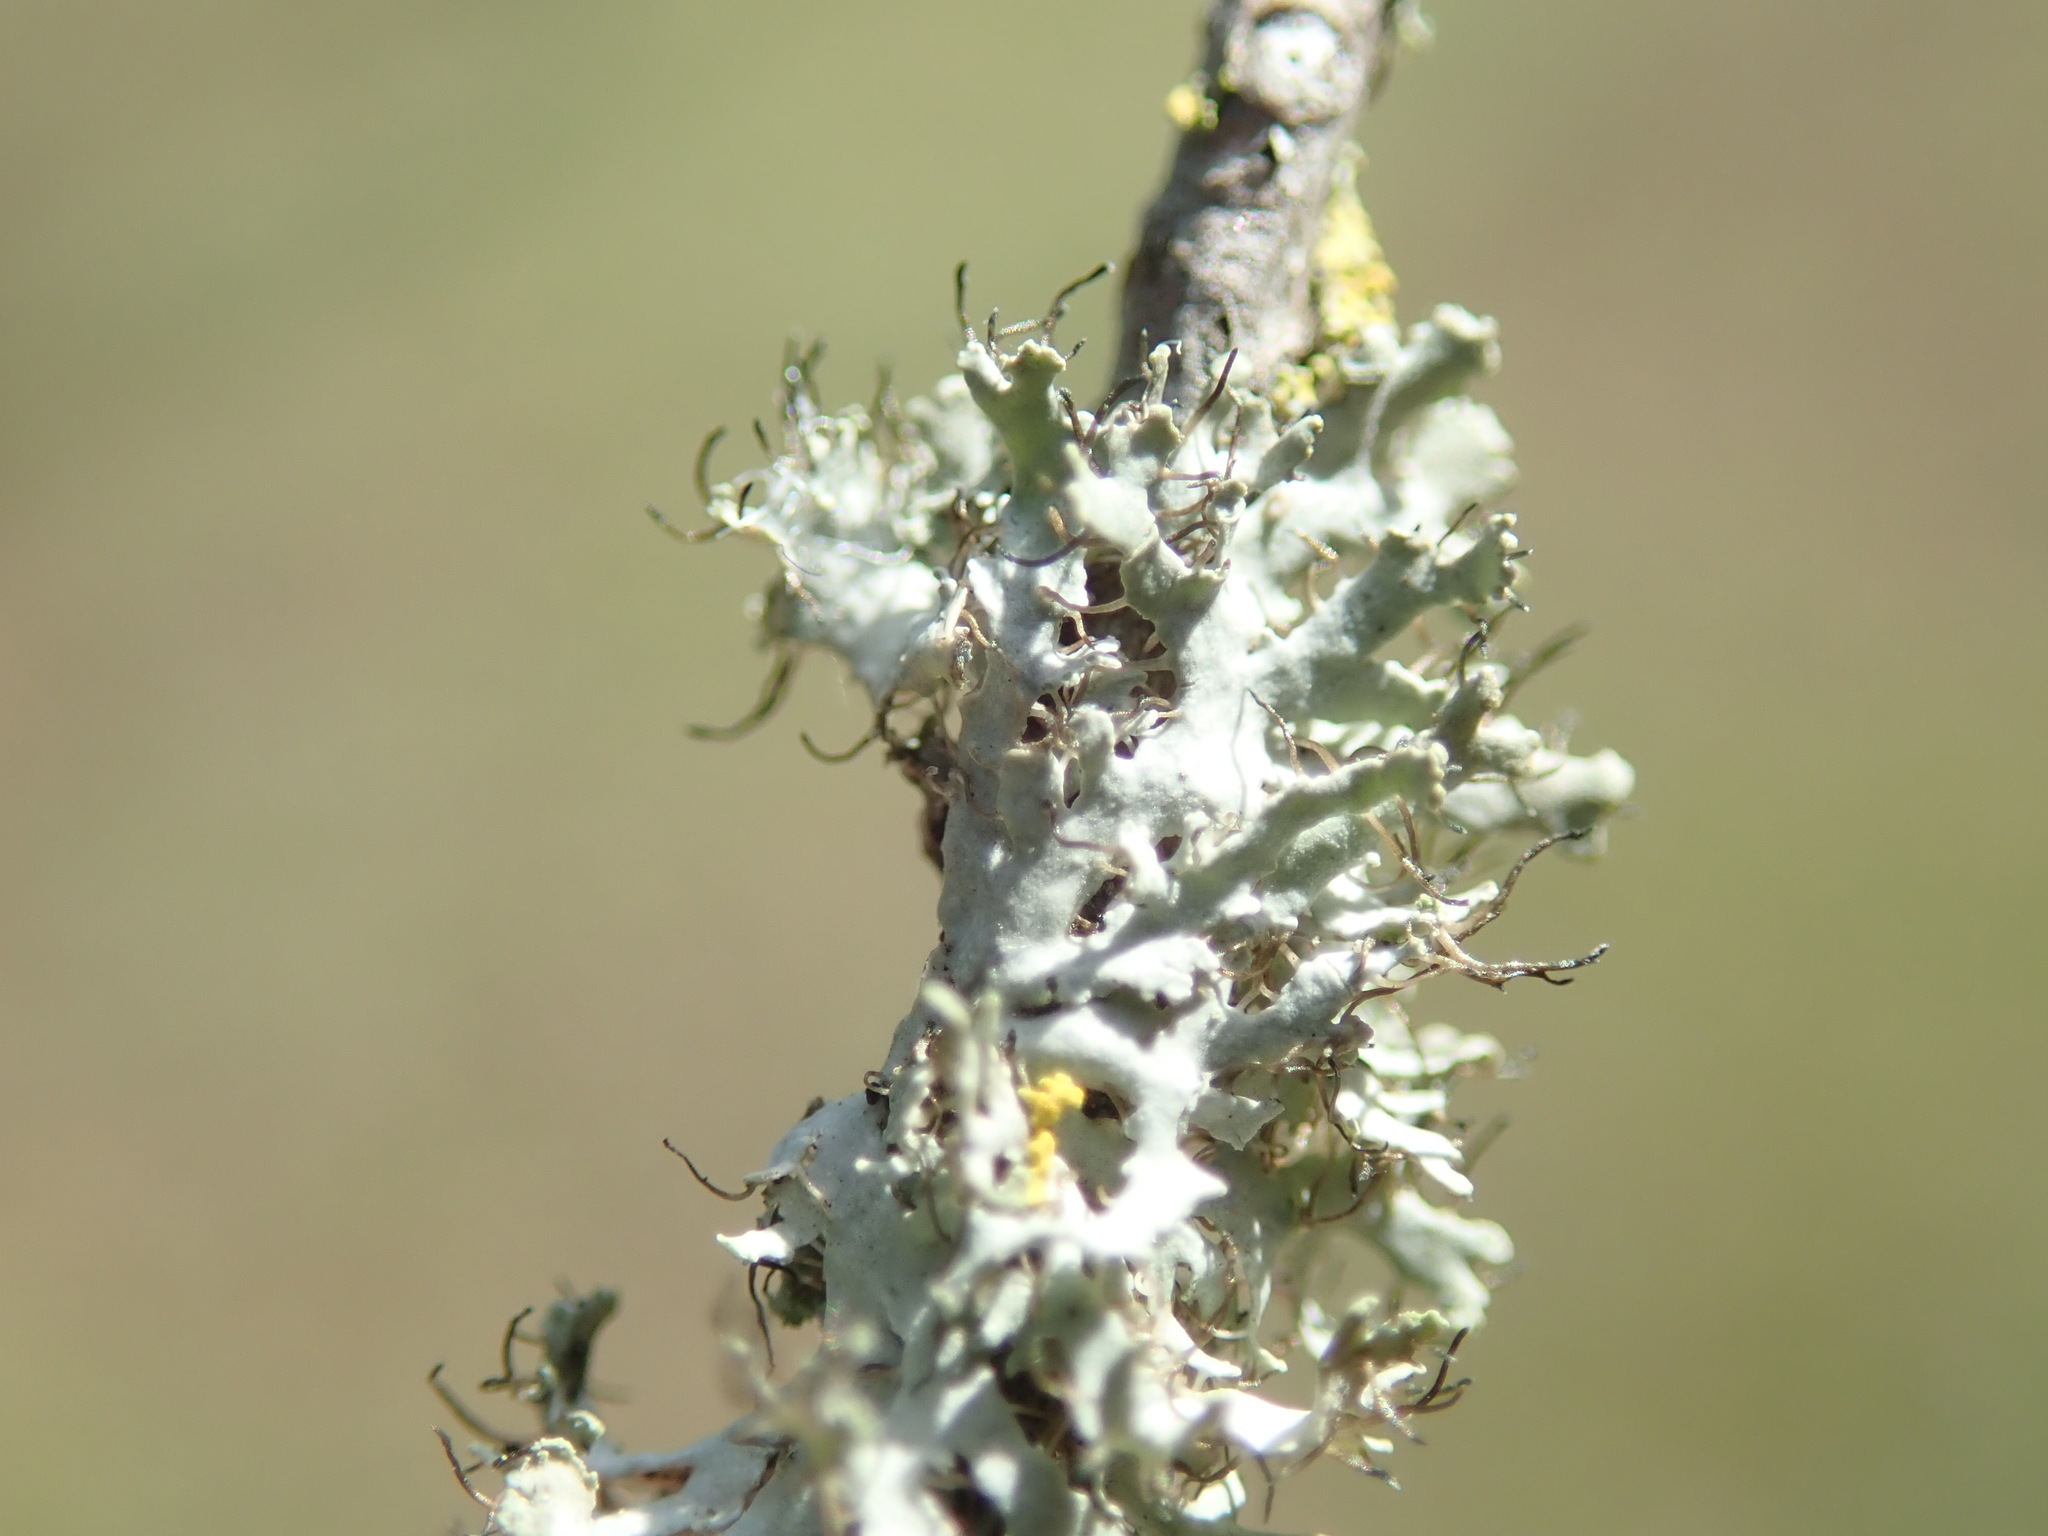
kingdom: Fungi
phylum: Ascomycota
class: Lecanoromycetes
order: Caliciales
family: Physciaceae
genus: Physcia
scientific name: Physcia tenella
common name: Fringed rosette lichen
